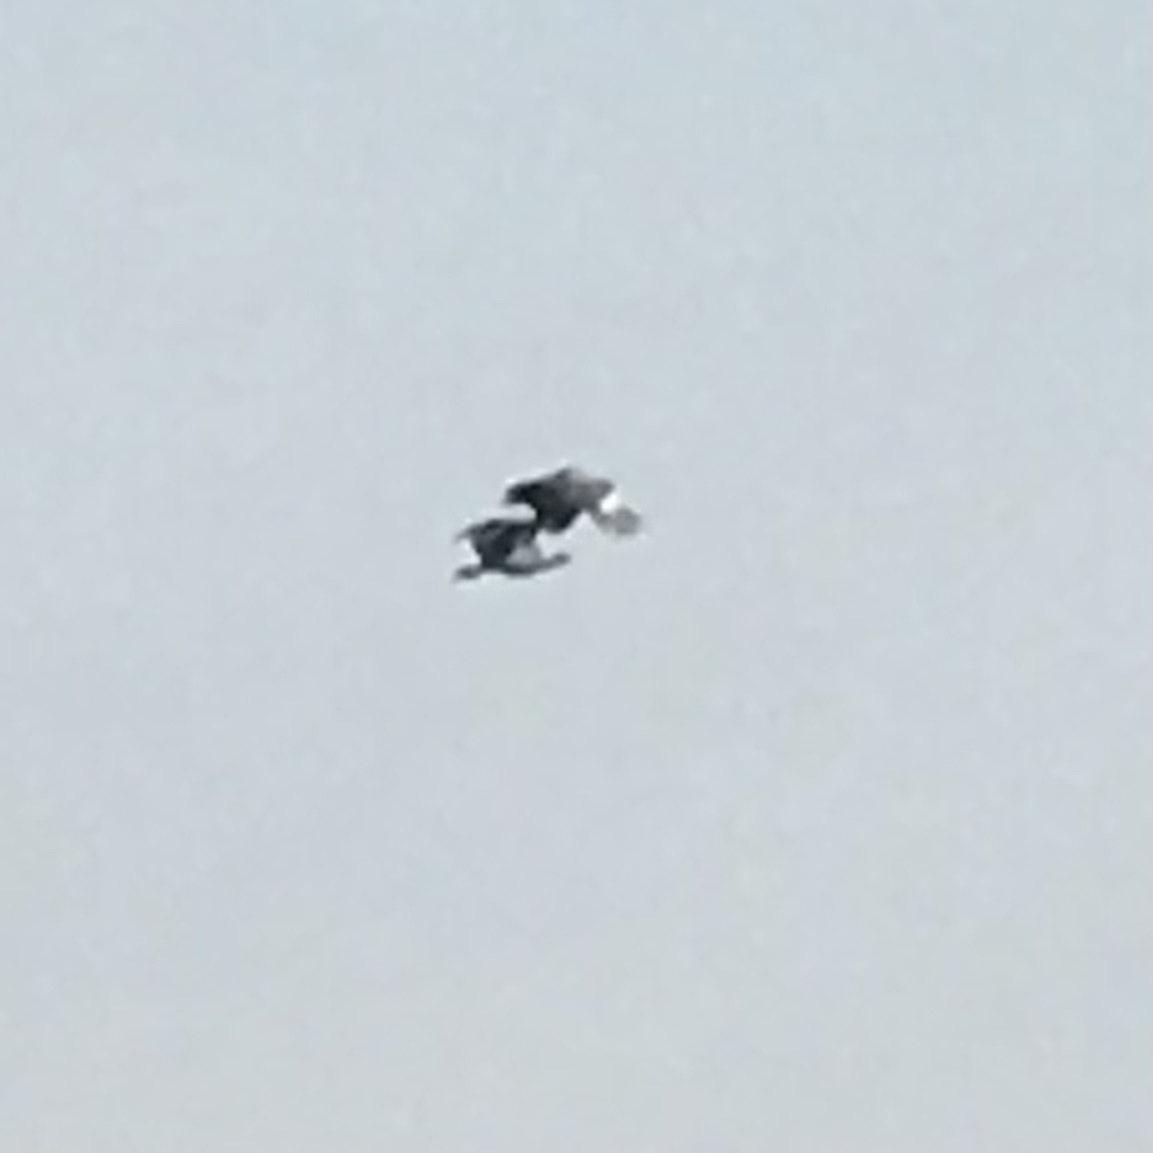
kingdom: Animalia
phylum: Chordata
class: Aves
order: Anseriformes
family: Anhimidae
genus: Chauna
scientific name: Chauna torquata
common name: Southern screamer
